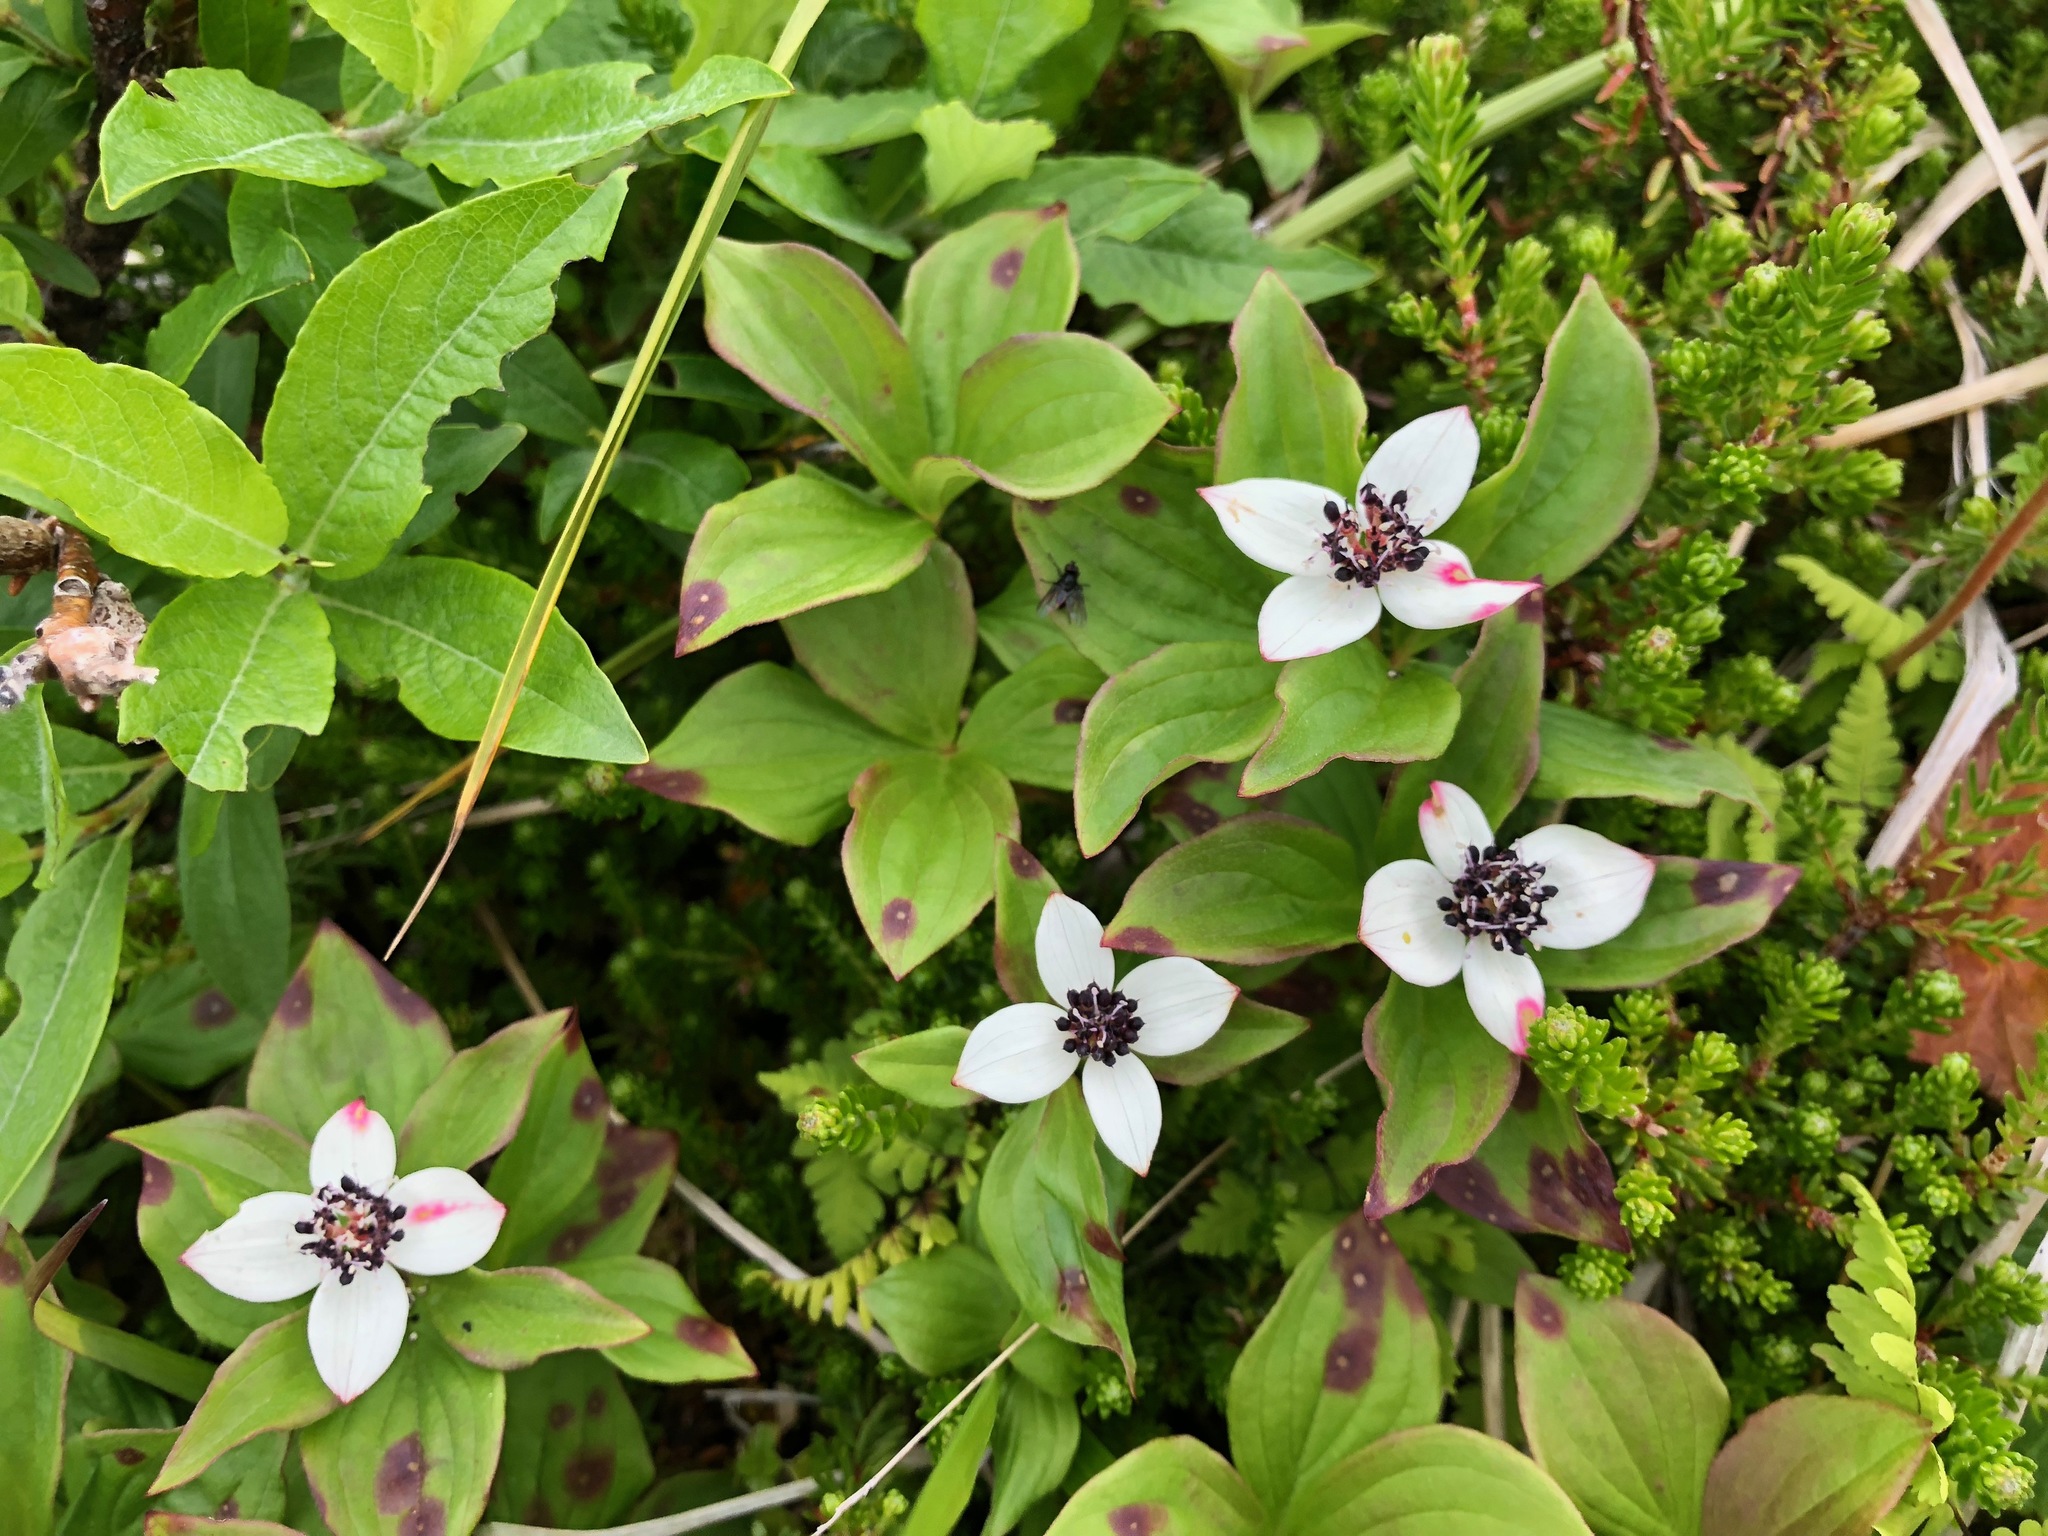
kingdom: Plantae
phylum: Tracheophyta
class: Magnoliopsida
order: Cornales
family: Cornaceae
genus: Cornus
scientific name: Cornus suecica
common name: Dwarf cornel
